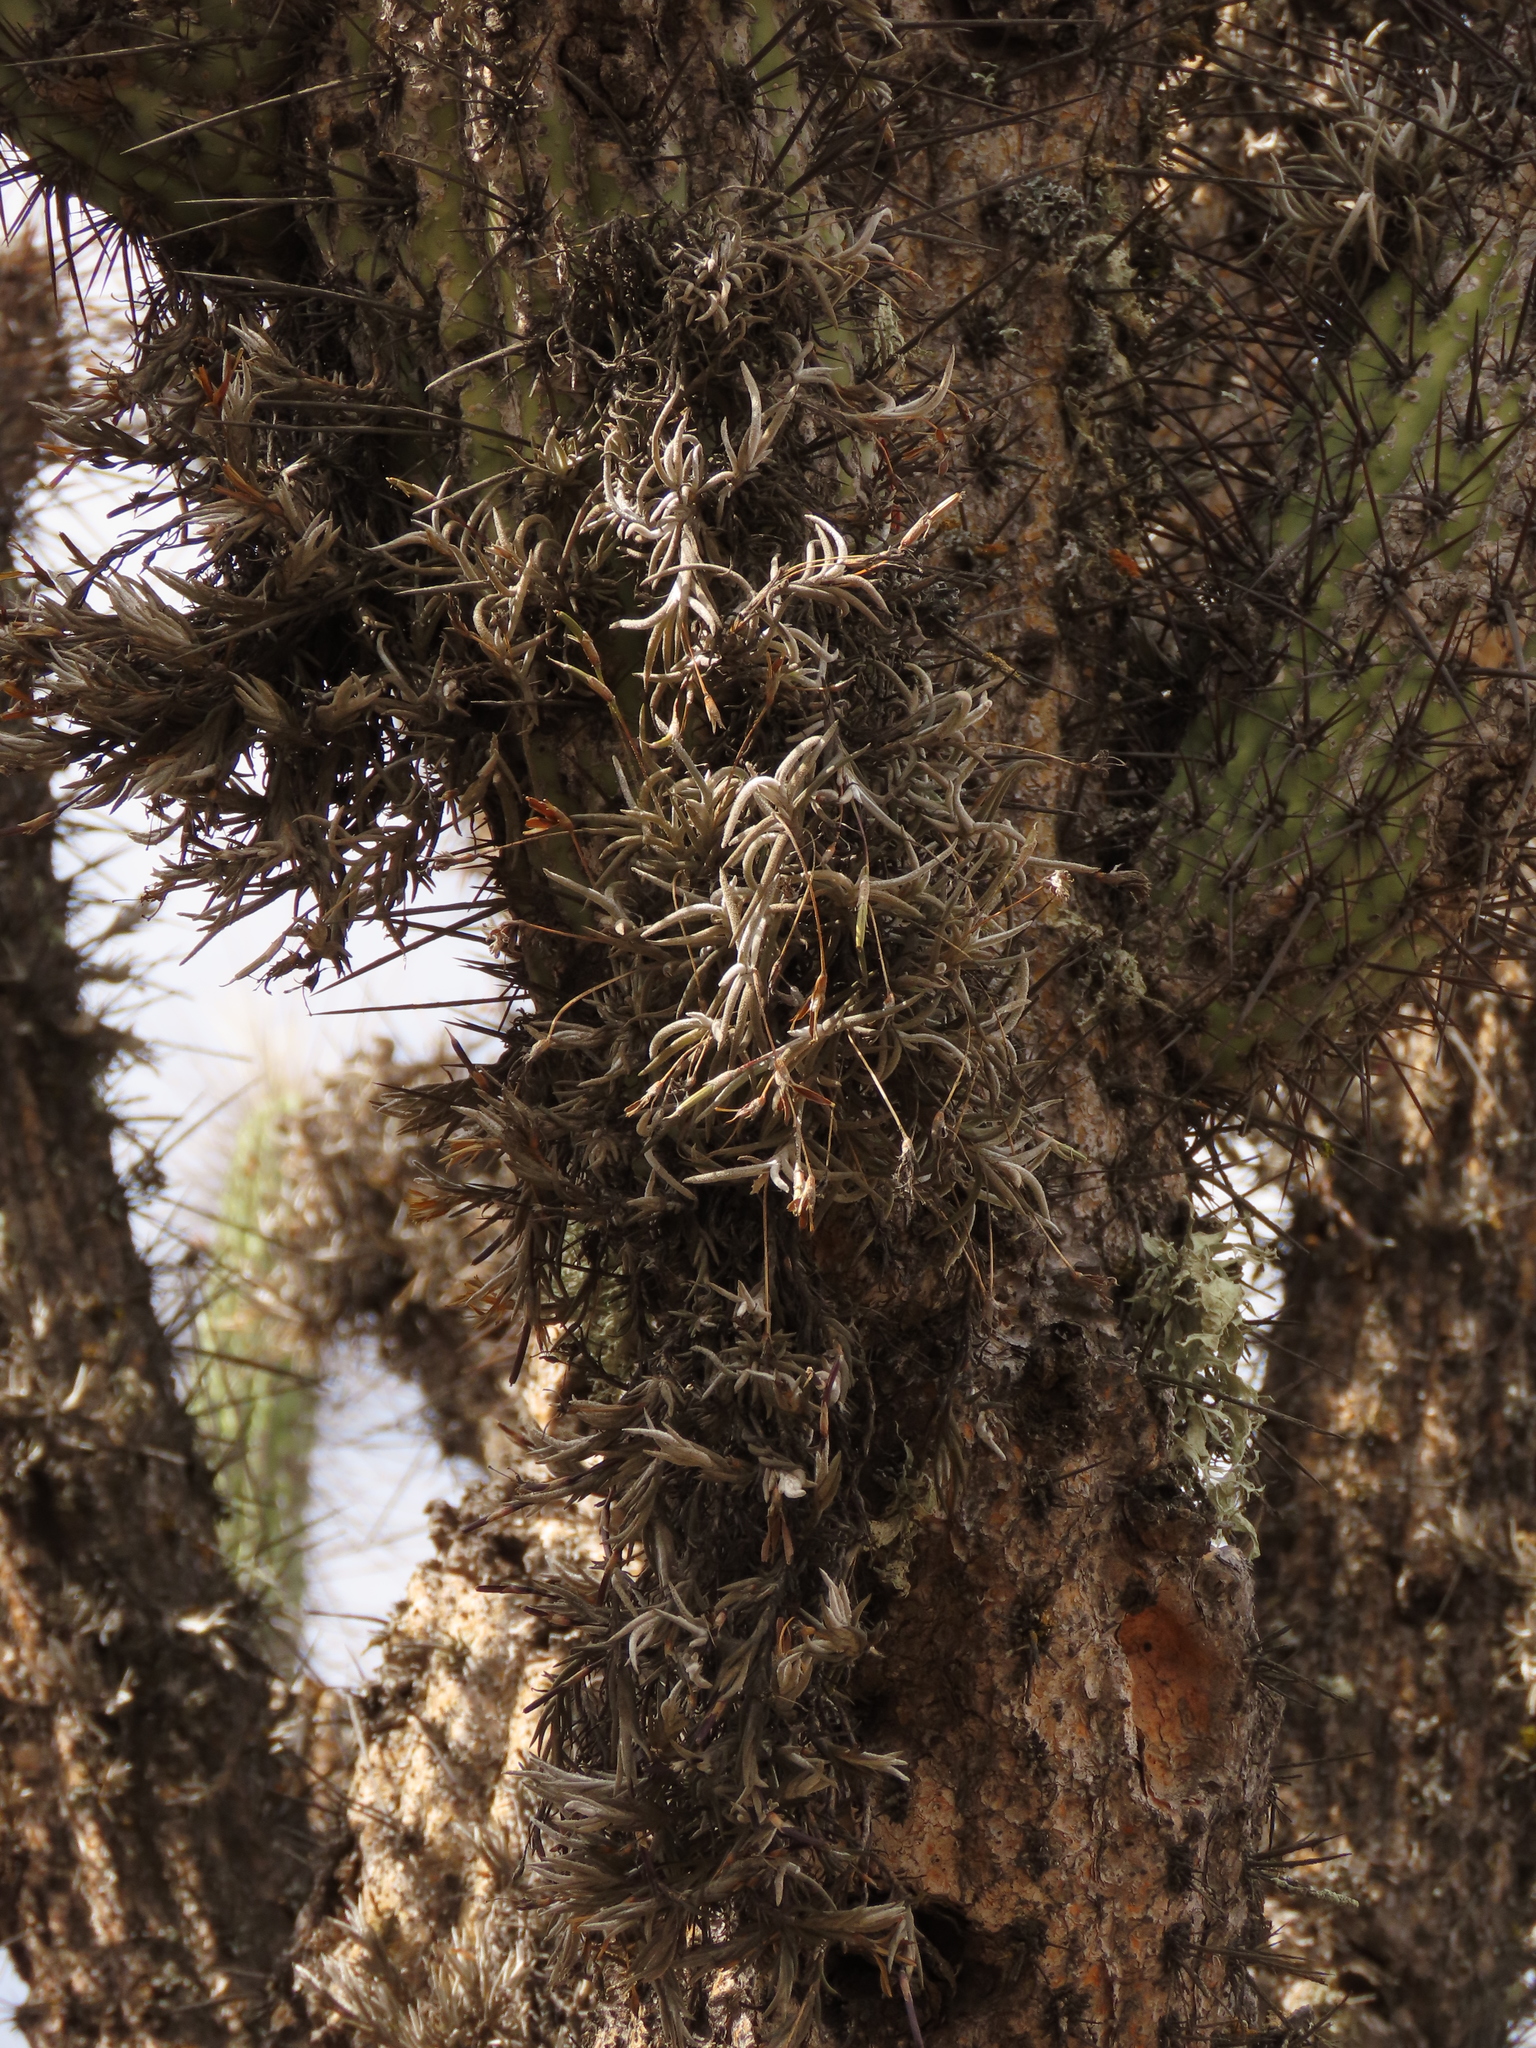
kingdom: Plantae
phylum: Tracheophyta
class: Liliopsida
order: Poales
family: Bromeliaceae
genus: Tillandsia
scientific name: Tillandsia virescens
